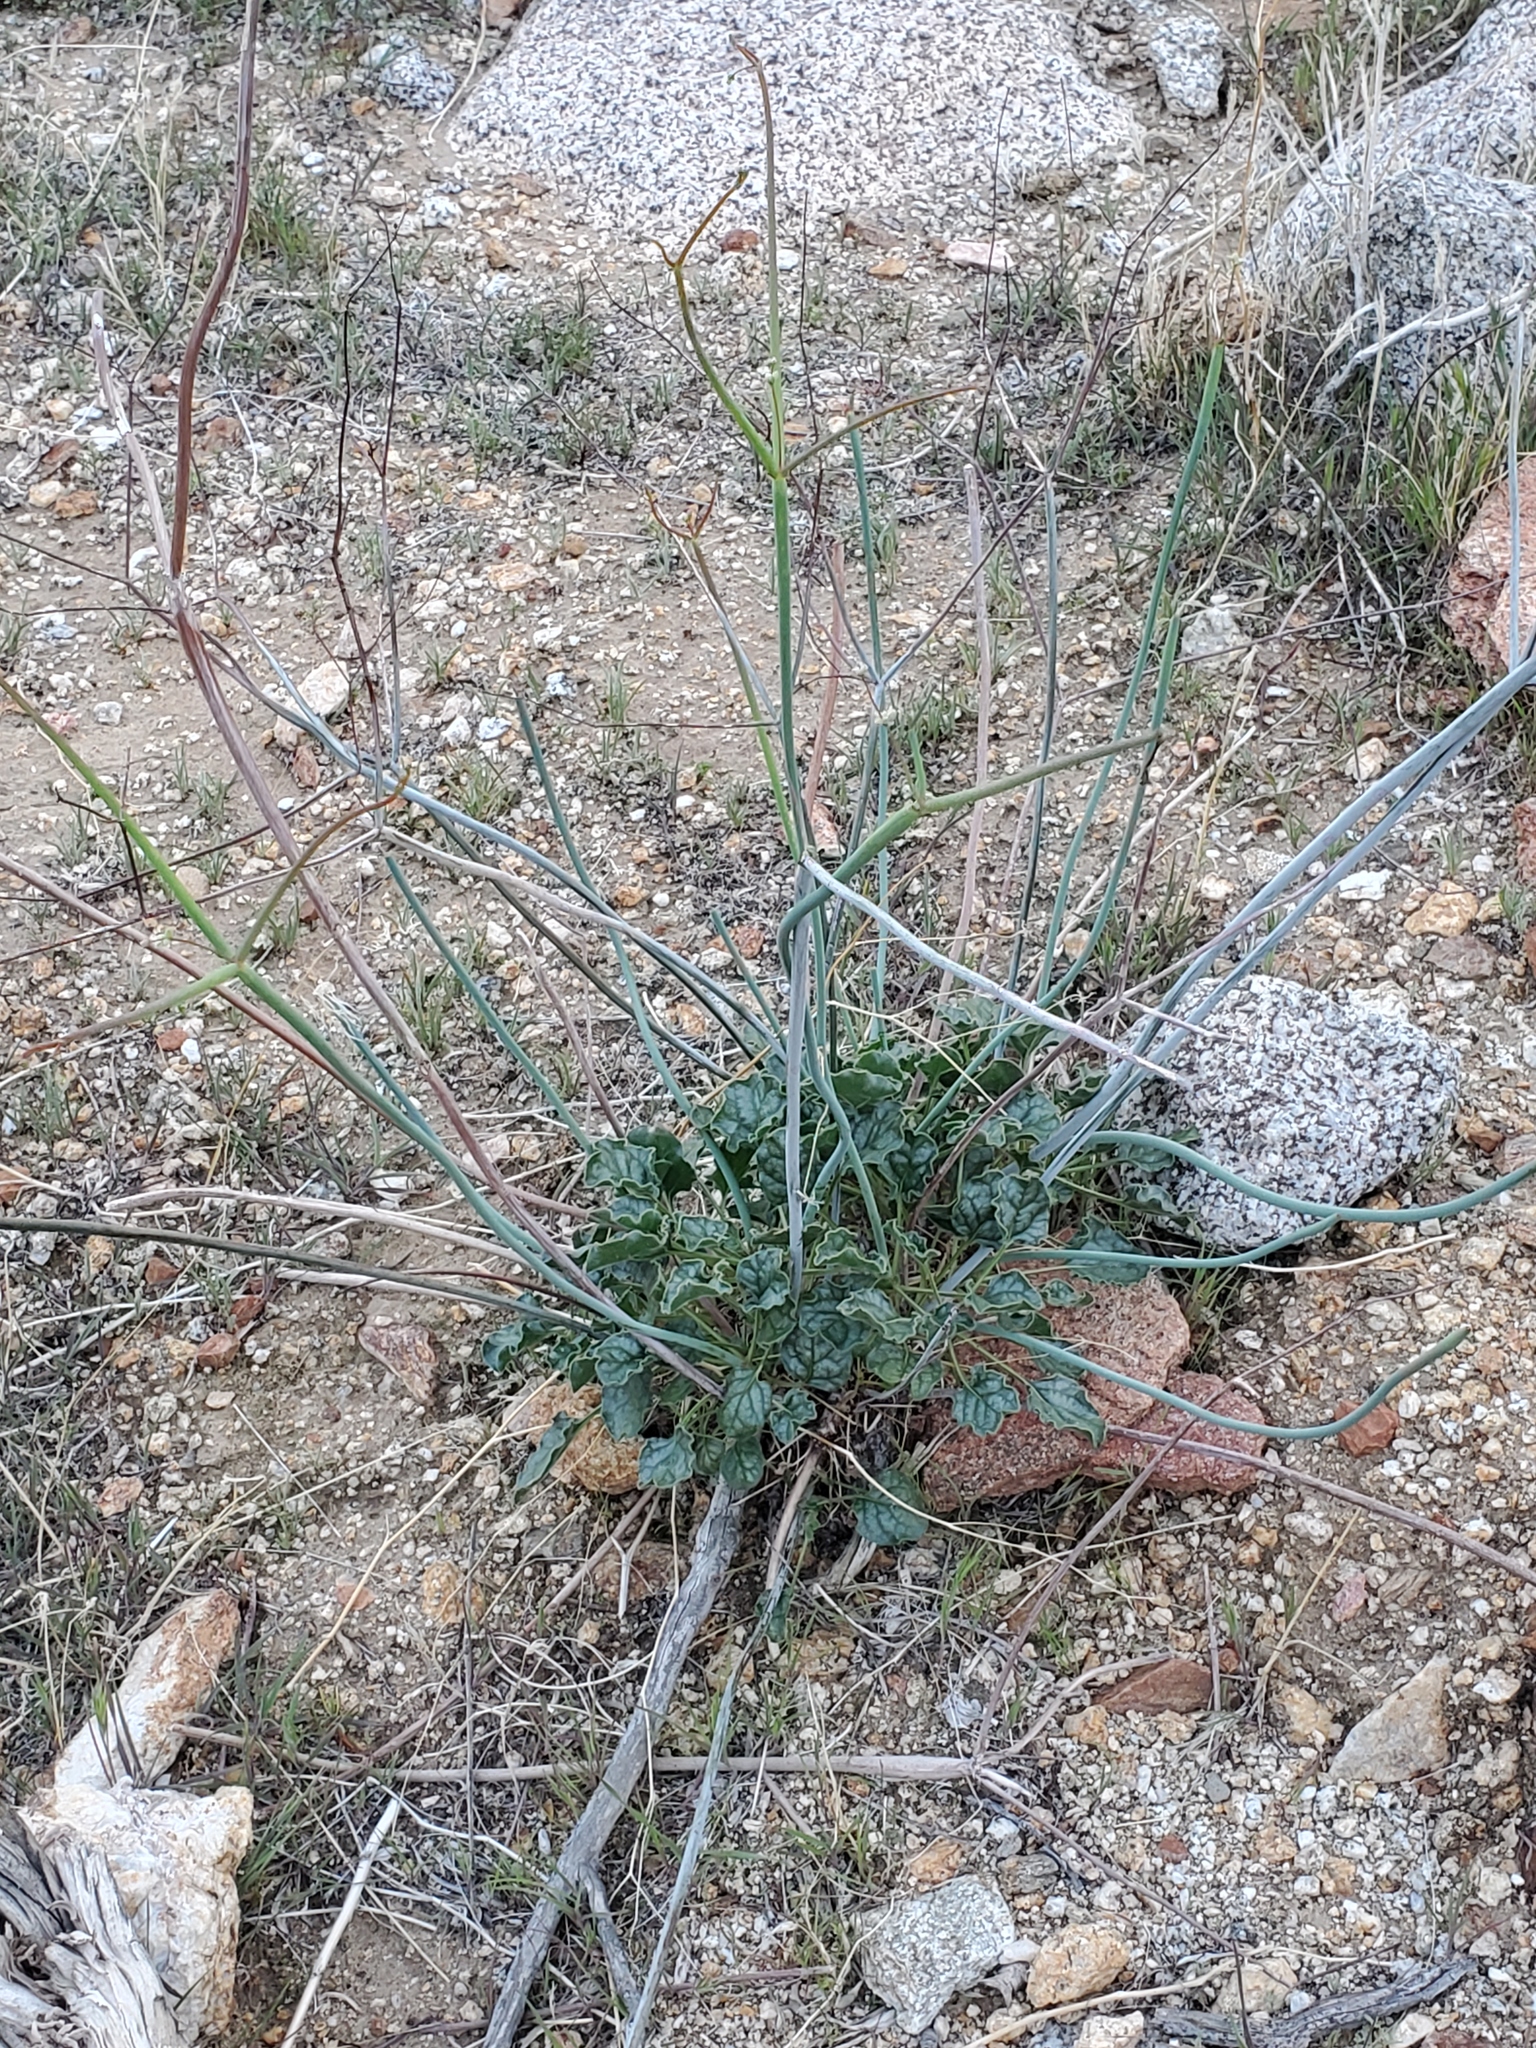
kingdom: Plantae
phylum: Tracheophyta
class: Magnoliopsida
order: Caryophyllales
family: Polygonaceae
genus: Eriogonum
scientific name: Eriogonum inflatum
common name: Desert trumpet
